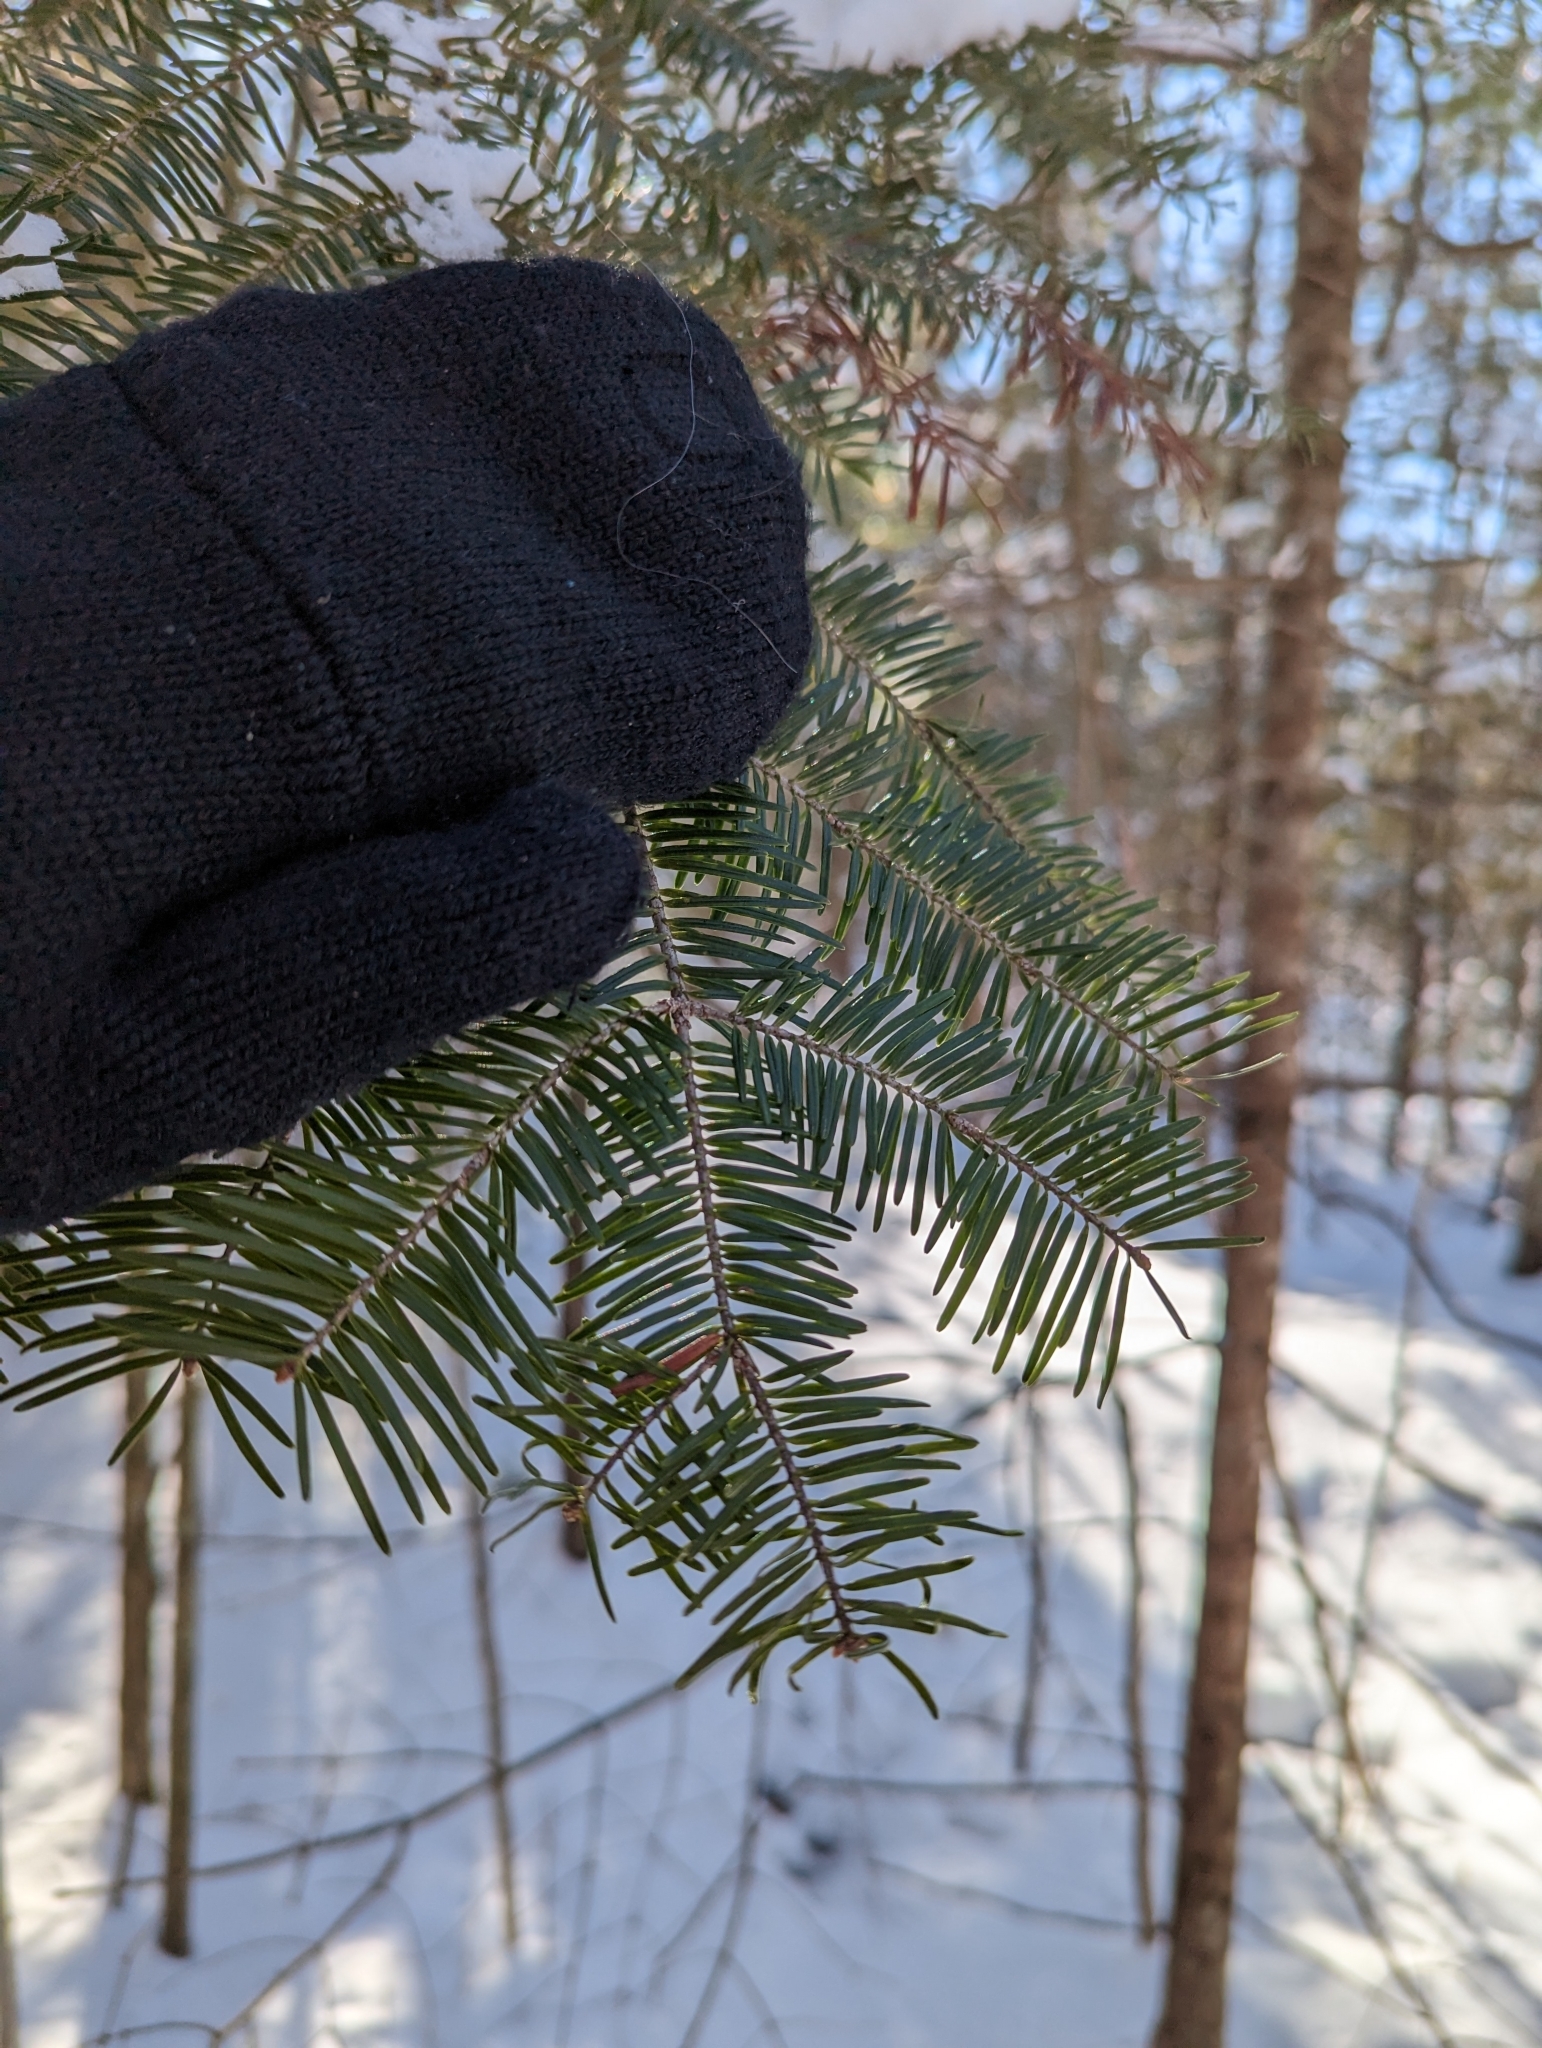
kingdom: Plantae
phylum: Tracheophyta
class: Pinopsida
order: Pinales
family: Pinaceae
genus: Abies
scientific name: Abies balsamea
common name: Balsam fir
